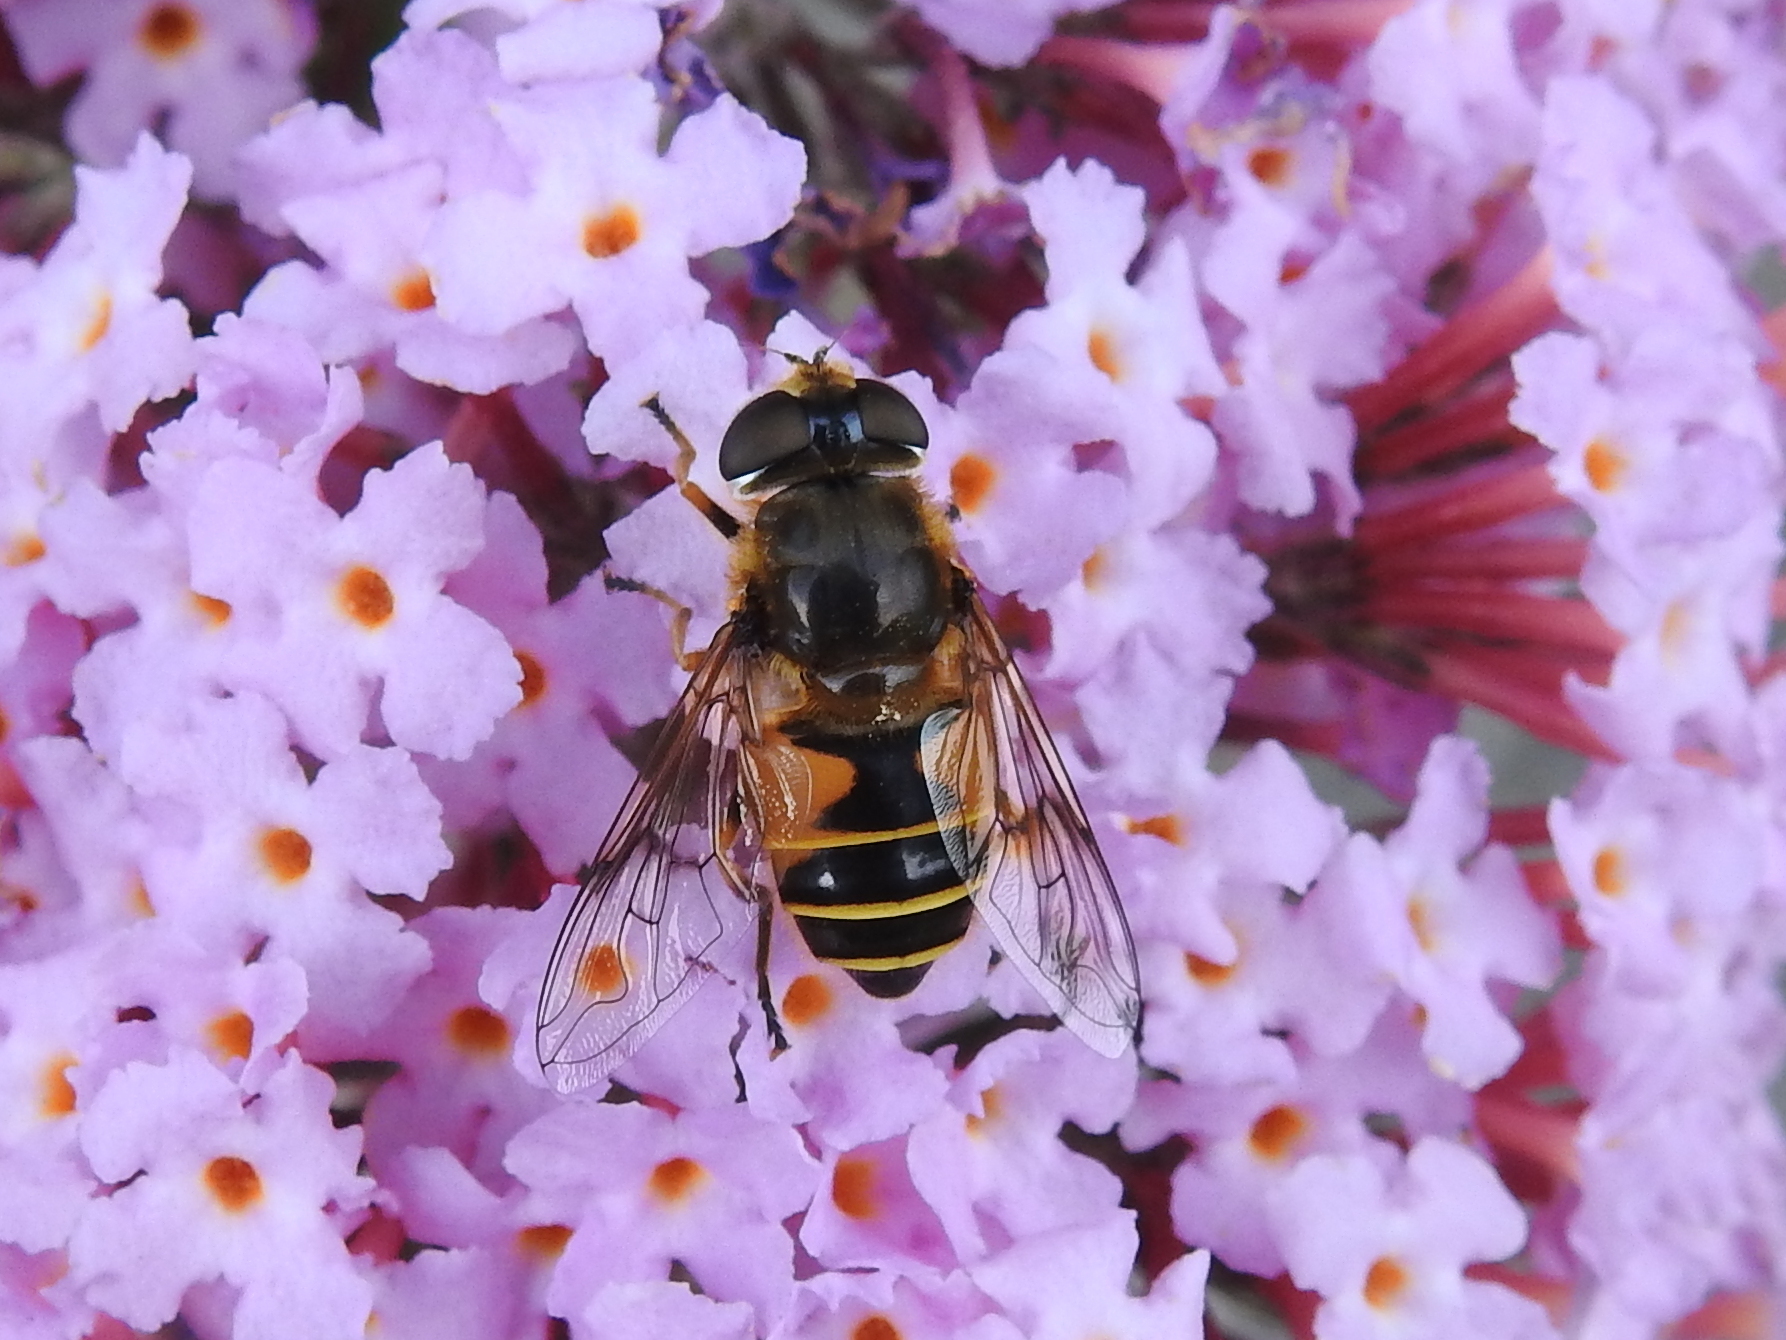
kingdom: Animalia
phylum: Arthropoda
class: Insecta
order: Diptera
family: Syrphidae
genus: Cheilosia
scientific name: Cheilosia morio
